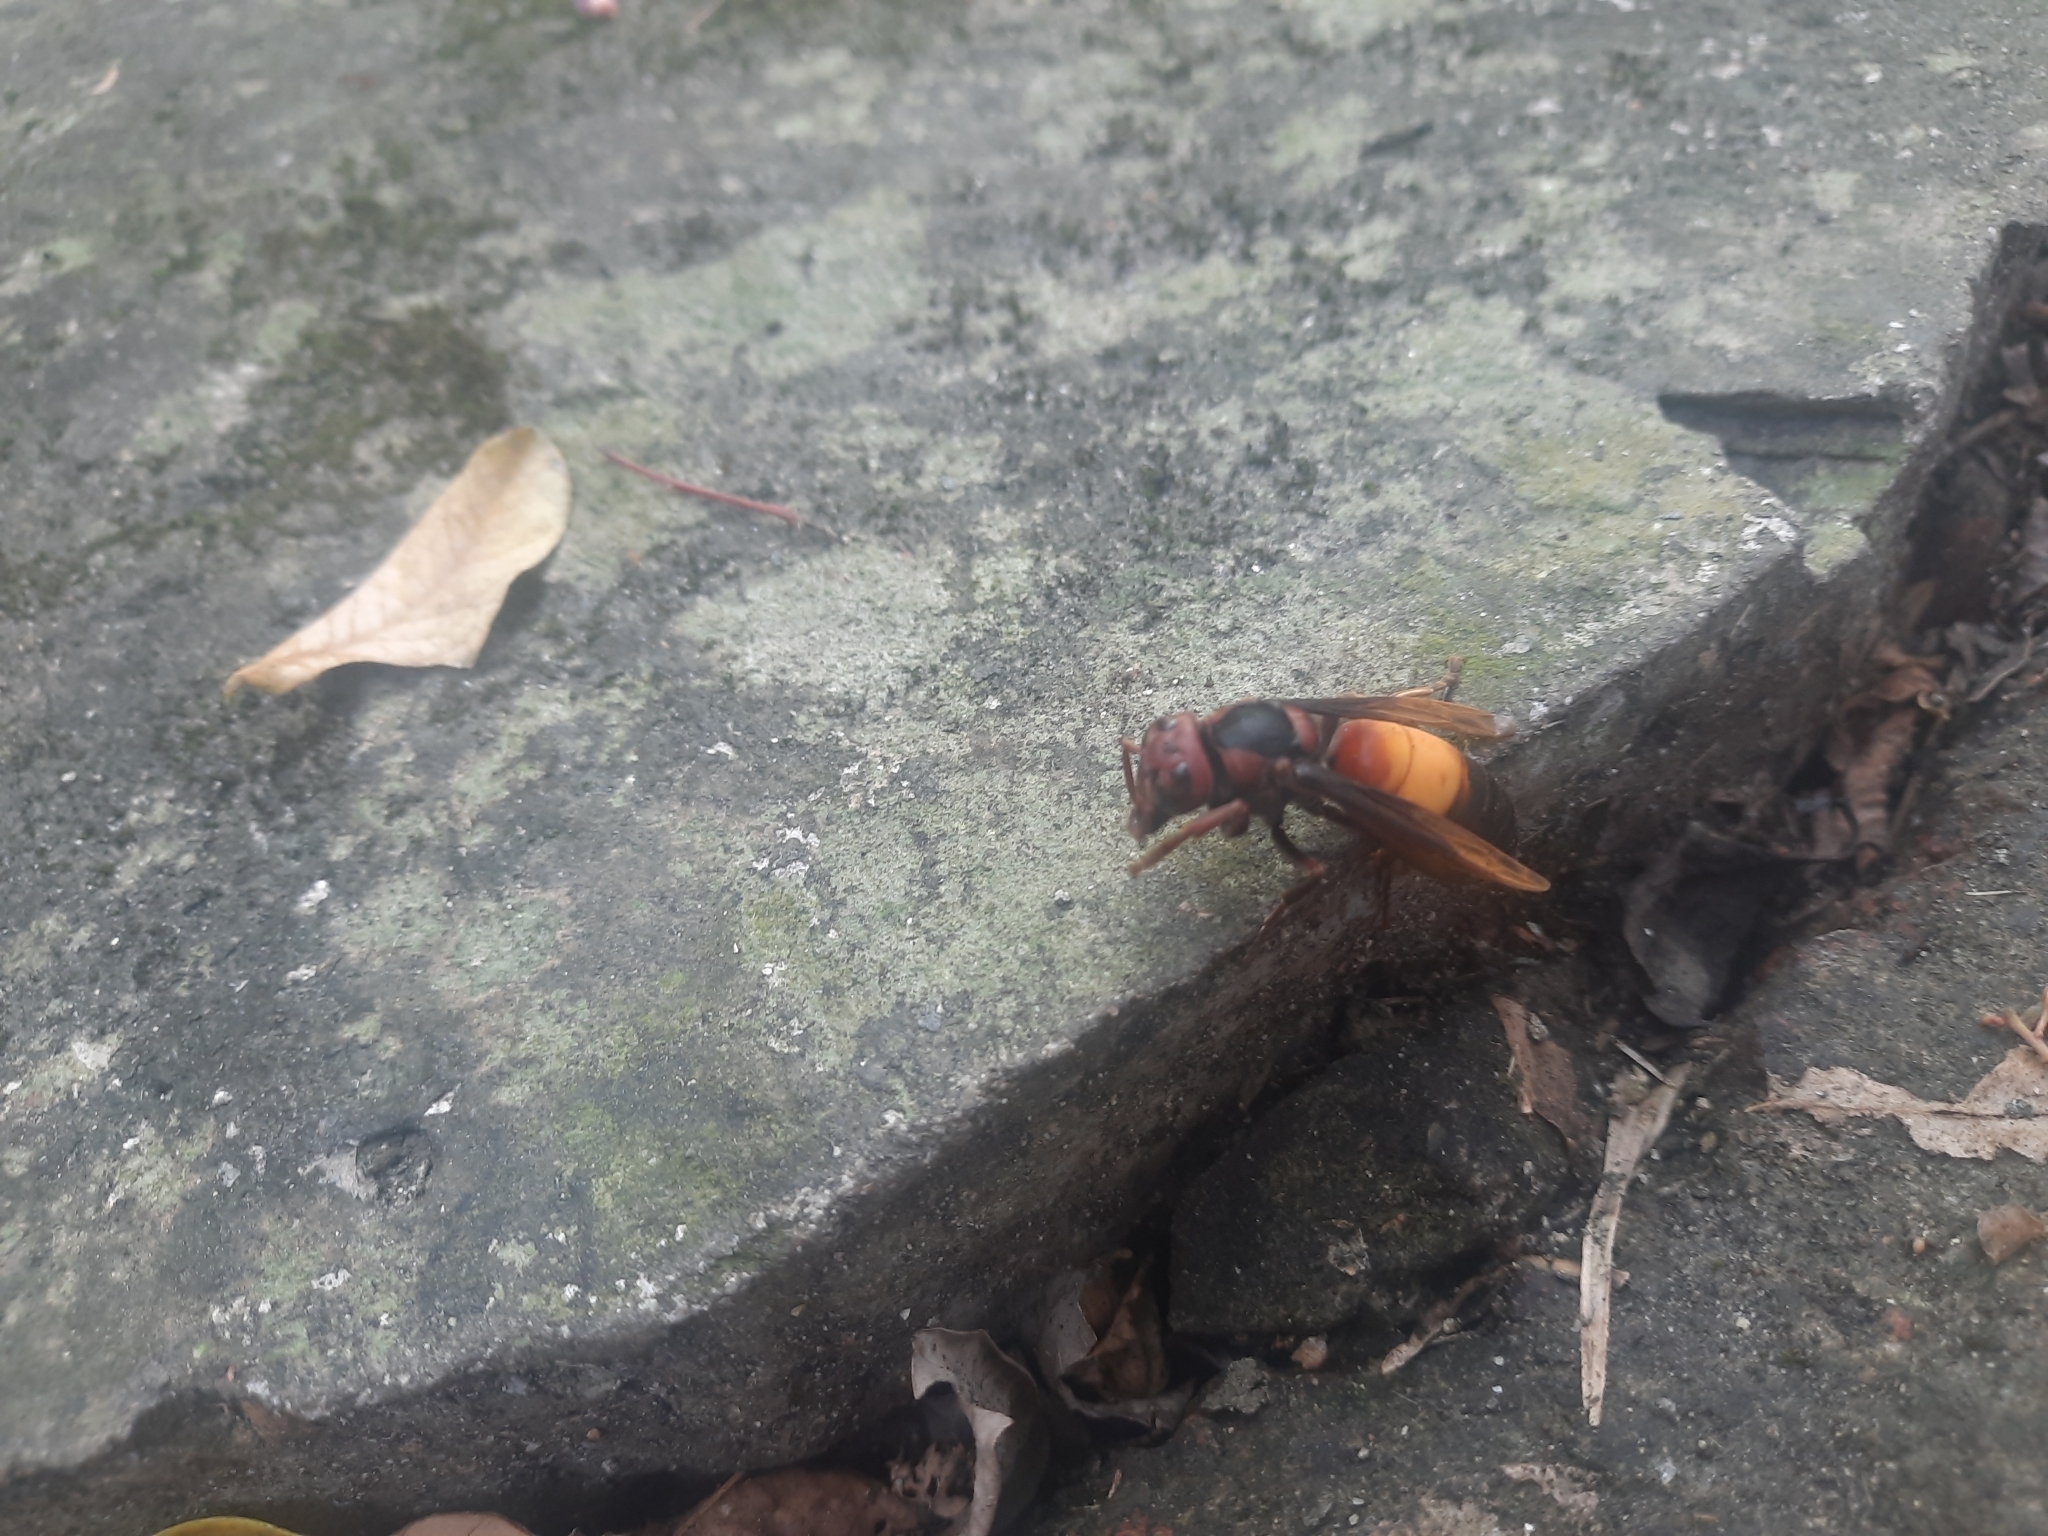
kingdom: Animalia
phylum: Arthropoda
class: Insecta
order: Hymenoptera
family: Vespidae
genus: Vespa
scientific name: Vespa affinis
